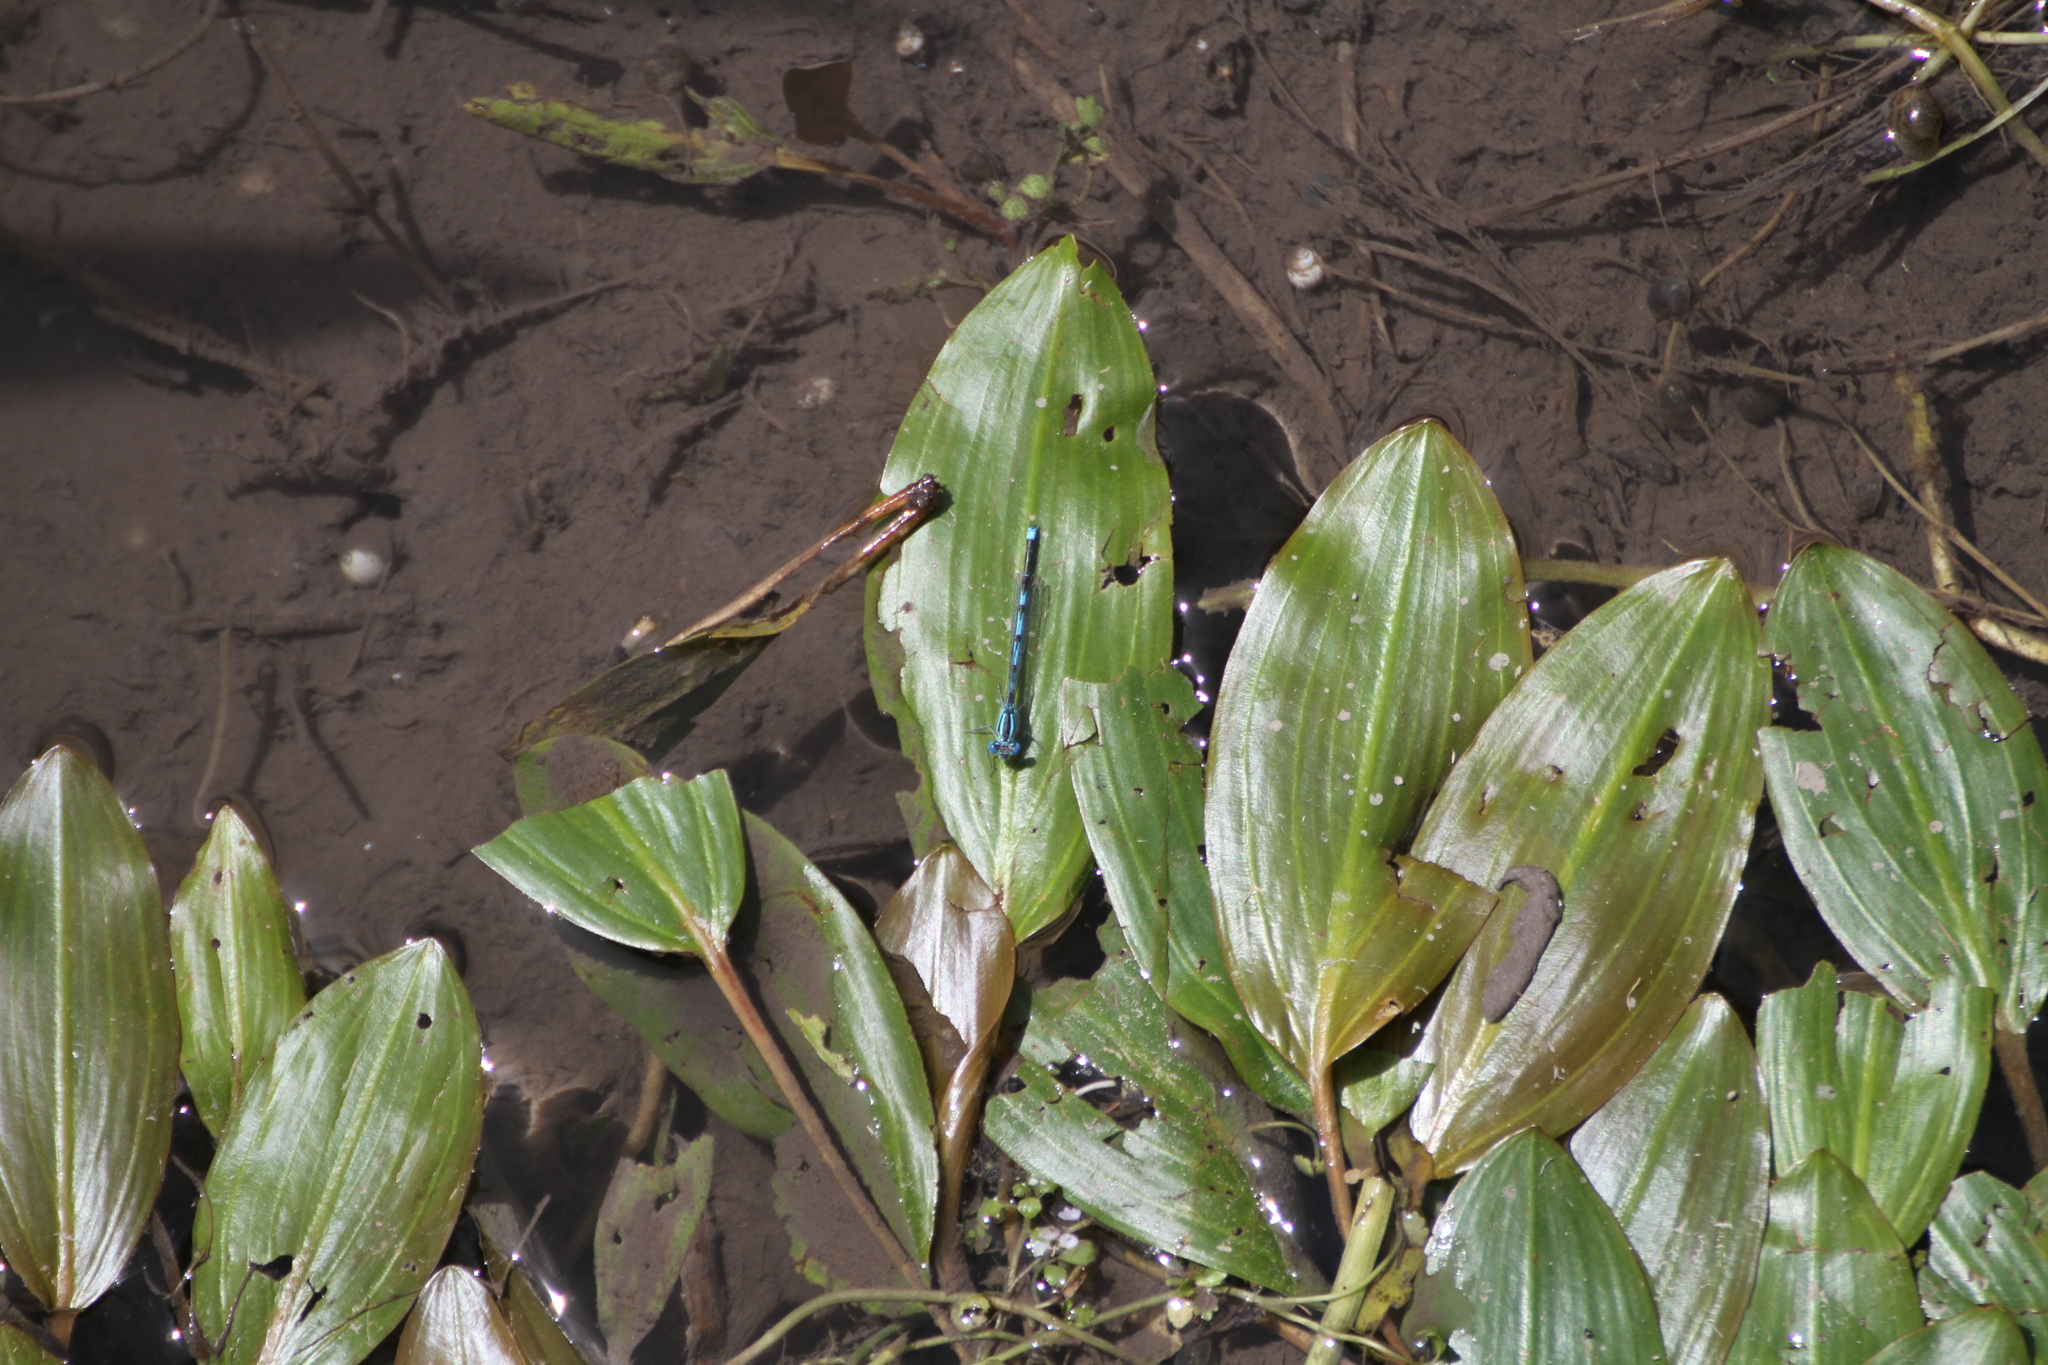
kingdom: Animalia
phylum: Arthropoda
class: Insecta
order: Odonata
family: Coenagrionidae
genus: Erythromma
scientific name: Erythromma lindenii
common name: Blue-eye
